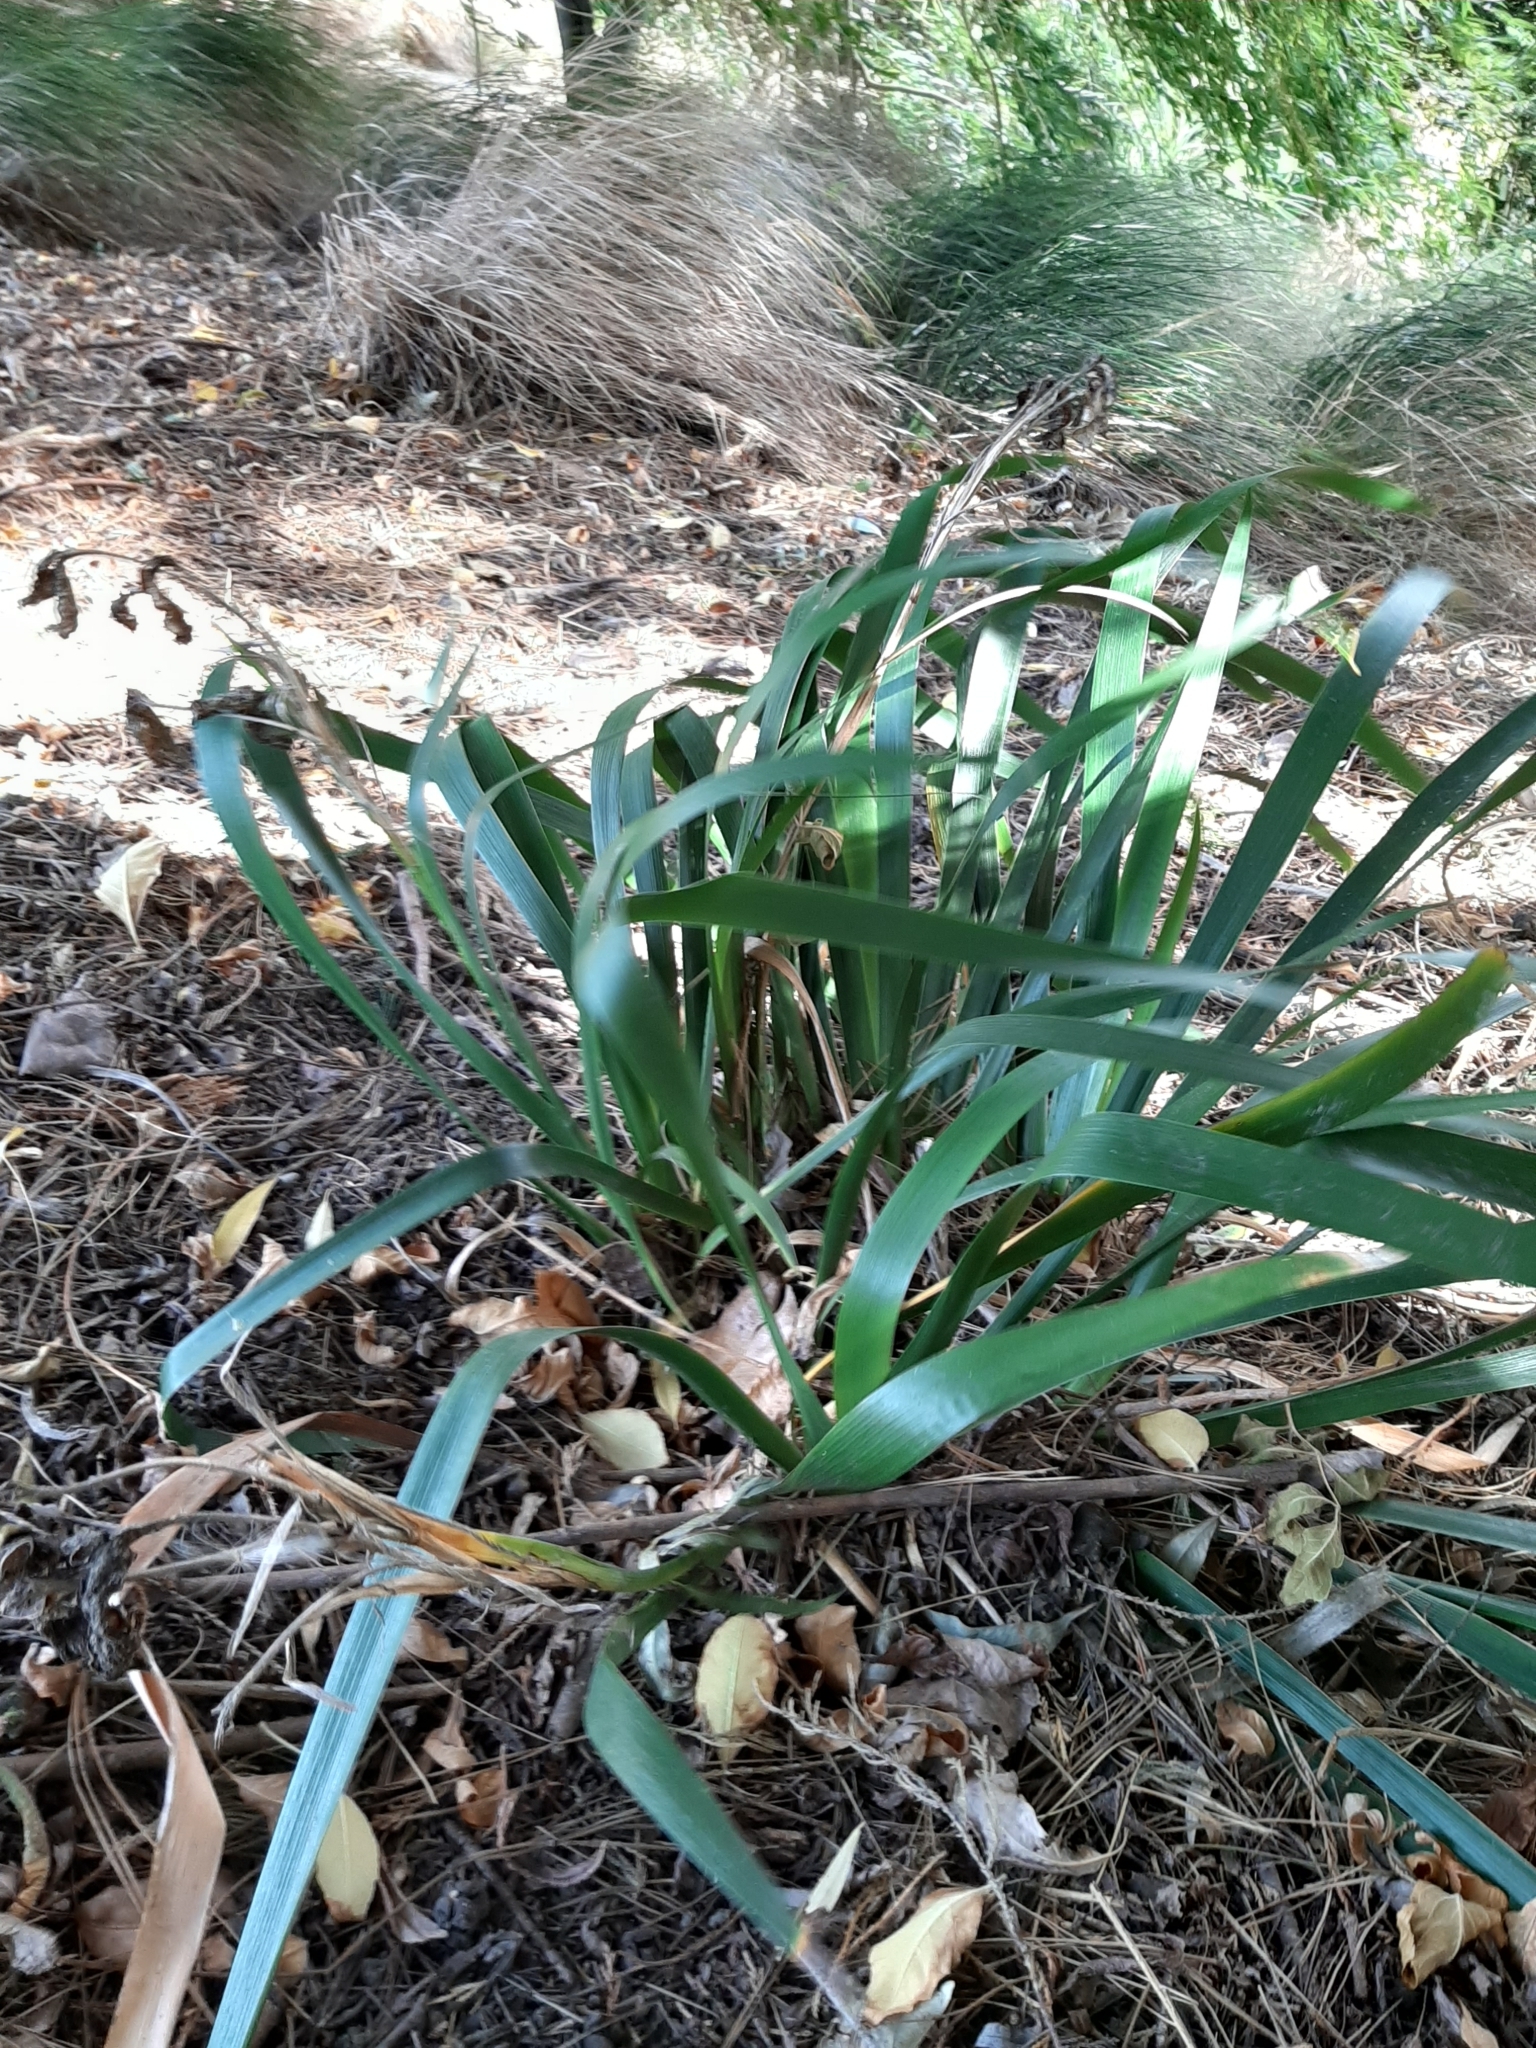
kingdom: Plantae
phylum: Tracheophyta
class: Liliopsida
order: Asparagales
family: Iridaceae
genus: Iris
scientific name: Iris foetidissima
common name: Stinking iris
